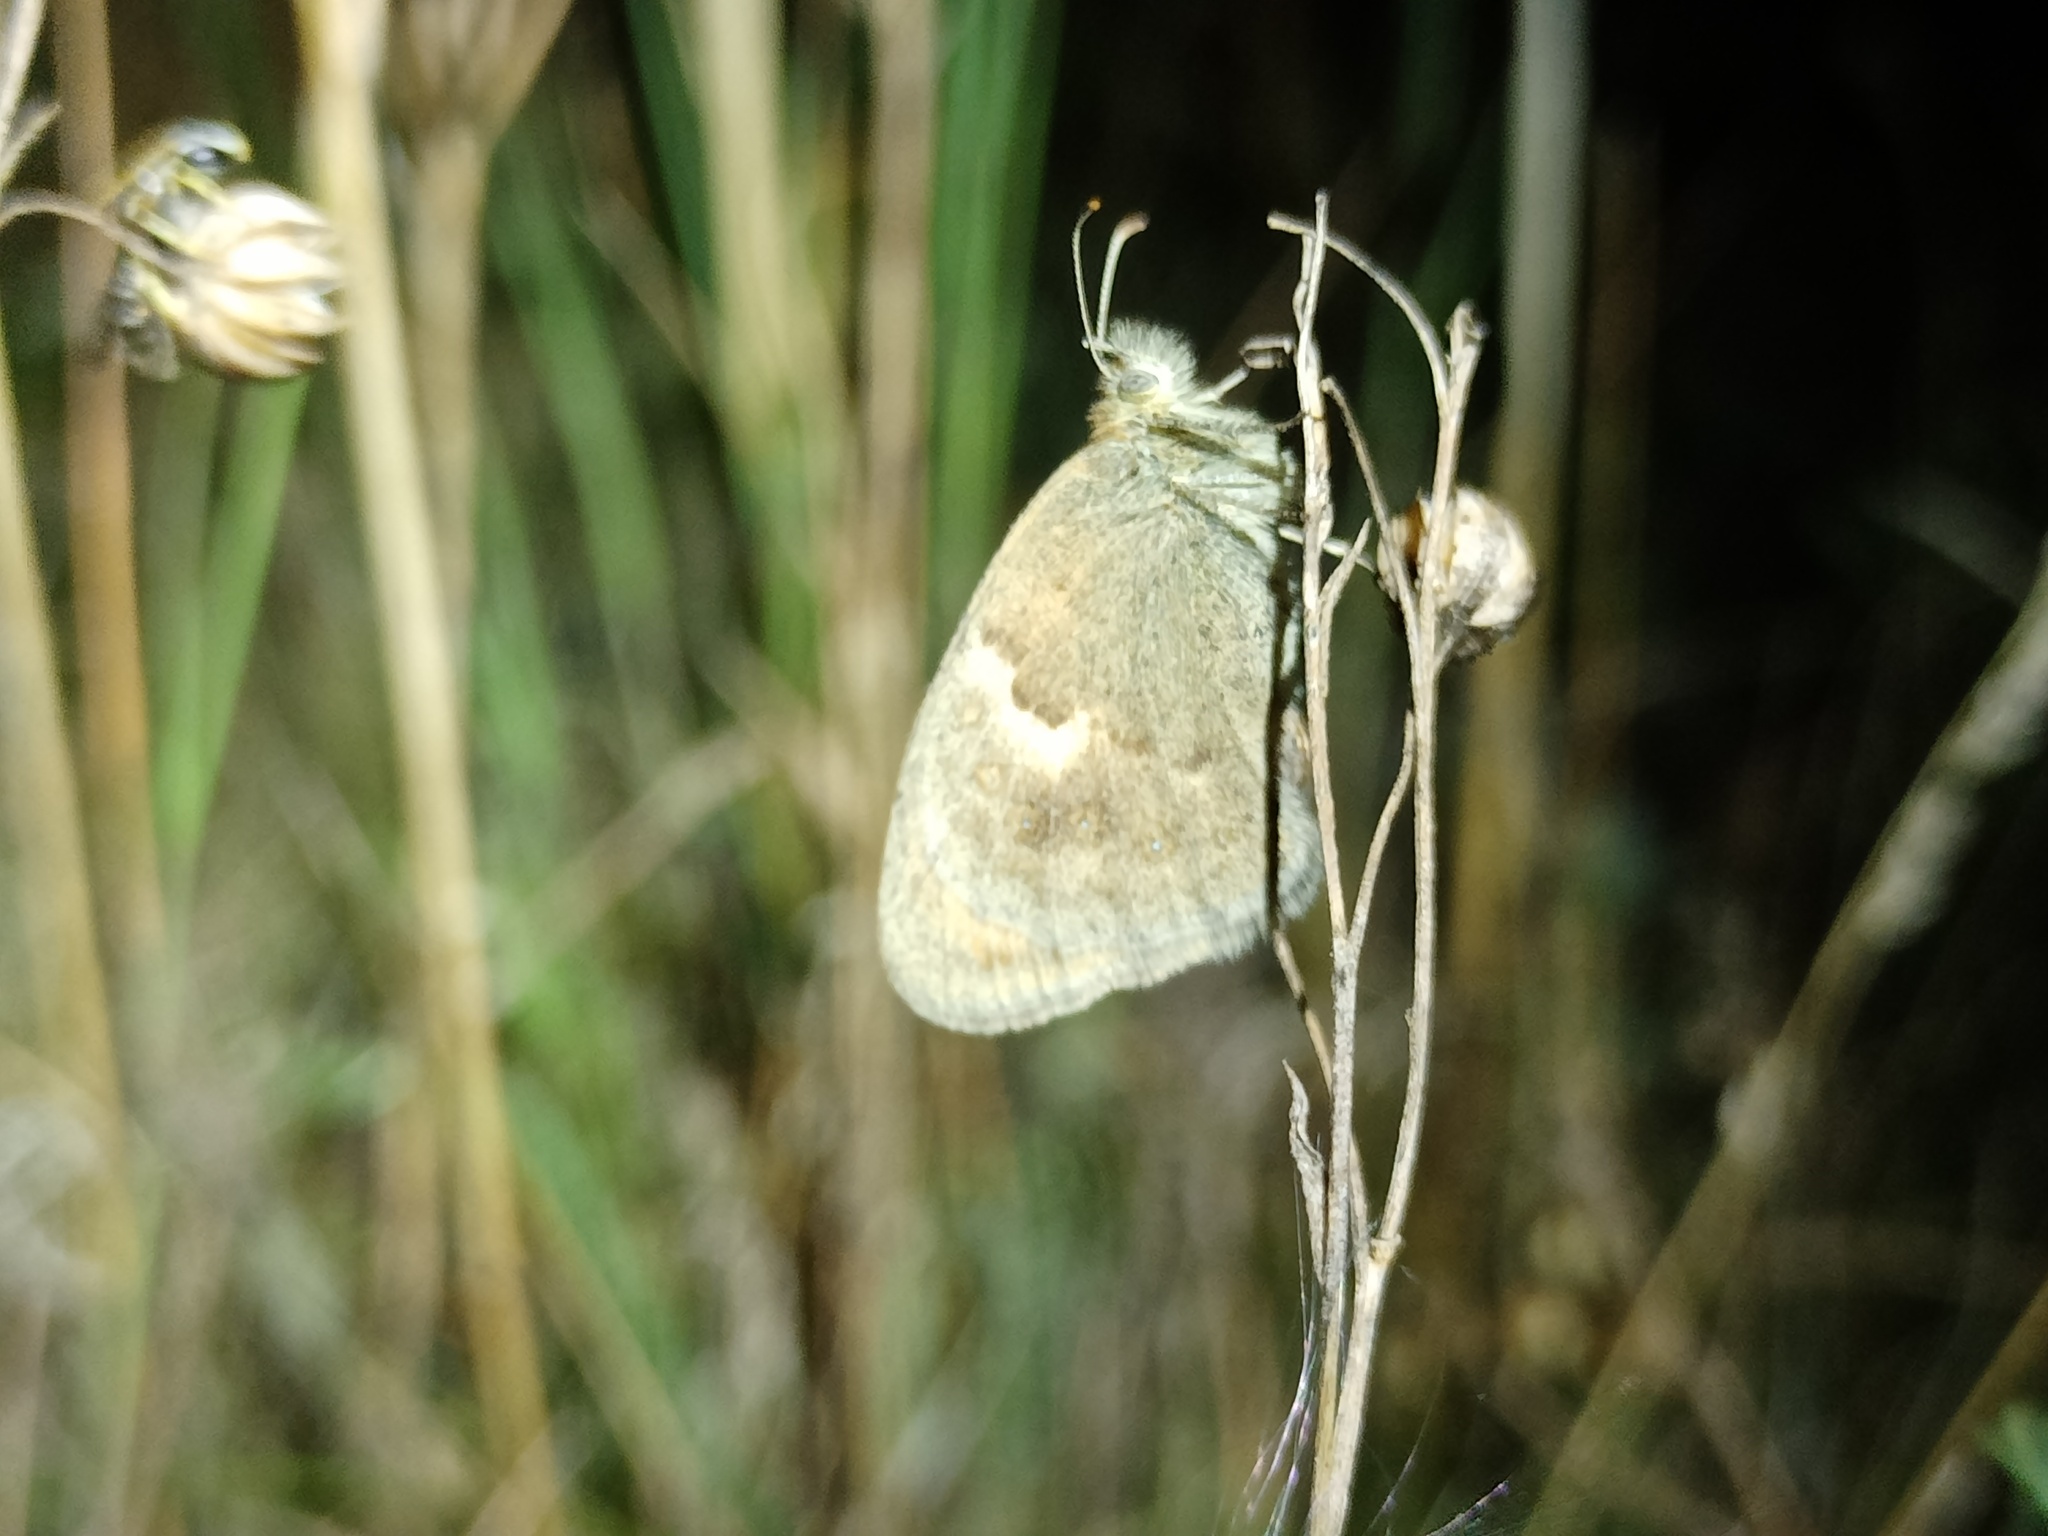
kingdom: Animalia
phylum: Arthropoda
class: Insecta
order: Lepidoptera
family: Nymphalidae
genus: Coenonympha
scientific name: Coenonympha pamphilus
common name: Small heath
